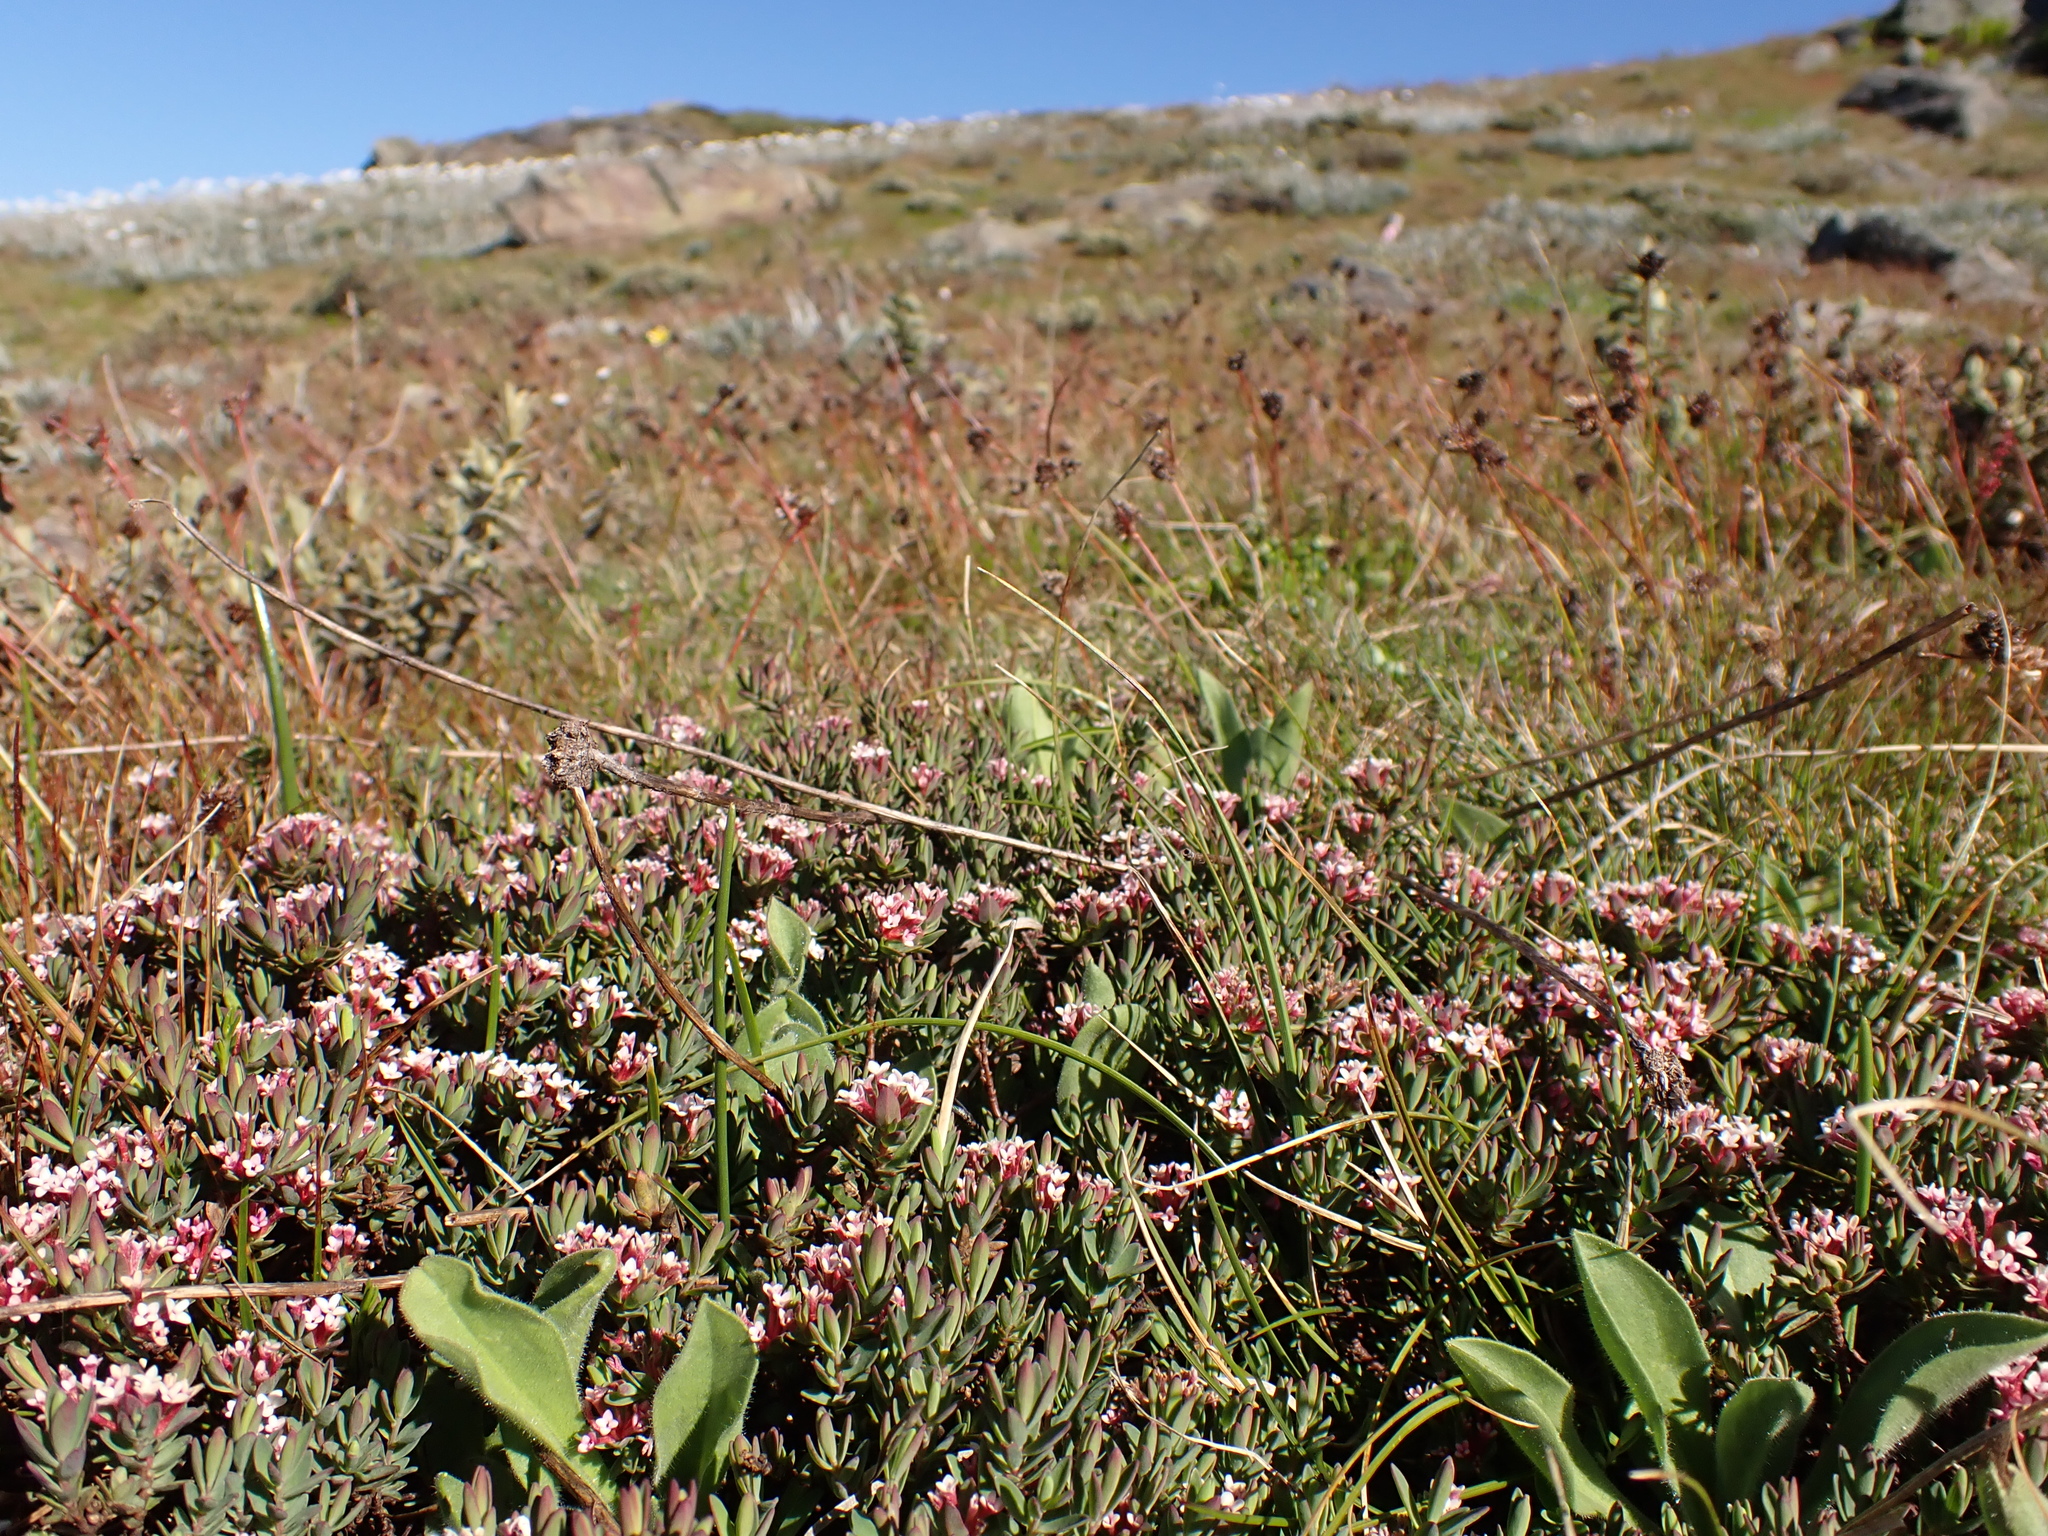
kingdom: Plantae
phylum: Tracheophyta
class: Magnoliopsida
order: Malvales
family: Thymelaeaceae
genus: Pimelea
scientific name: Pimelea alpina
